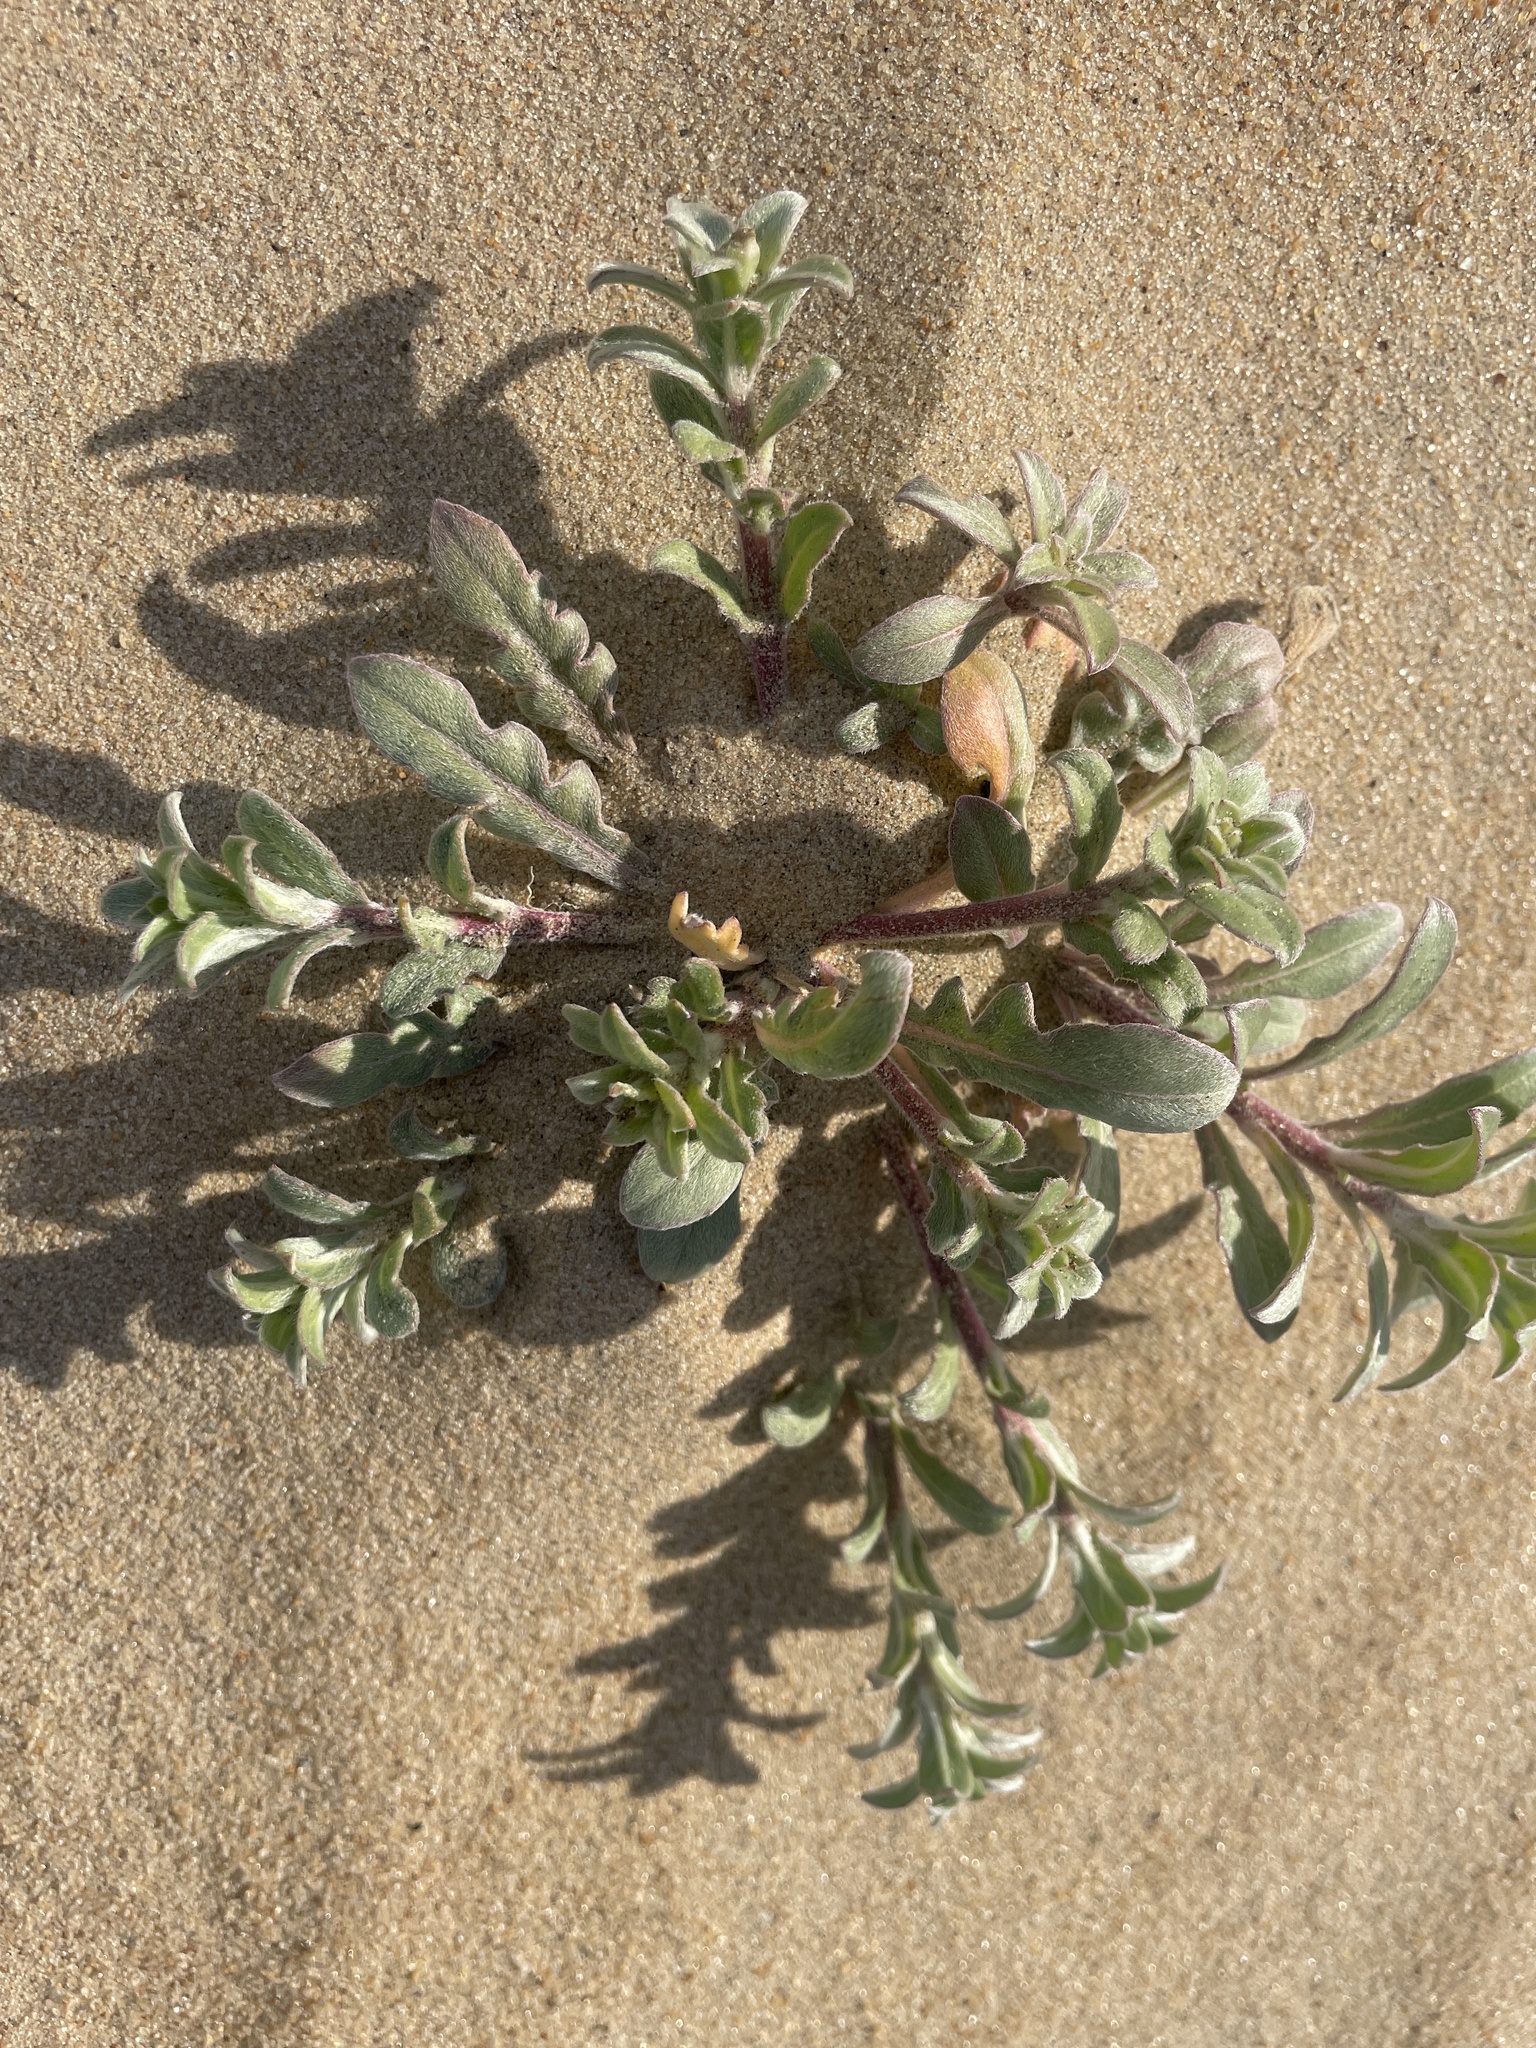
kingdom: Plantae
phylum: Tracheophyta
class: Magnoliopsida
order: Myrtales
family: Onagraceae
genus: Oenothera
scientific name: Oenothera humifusa
